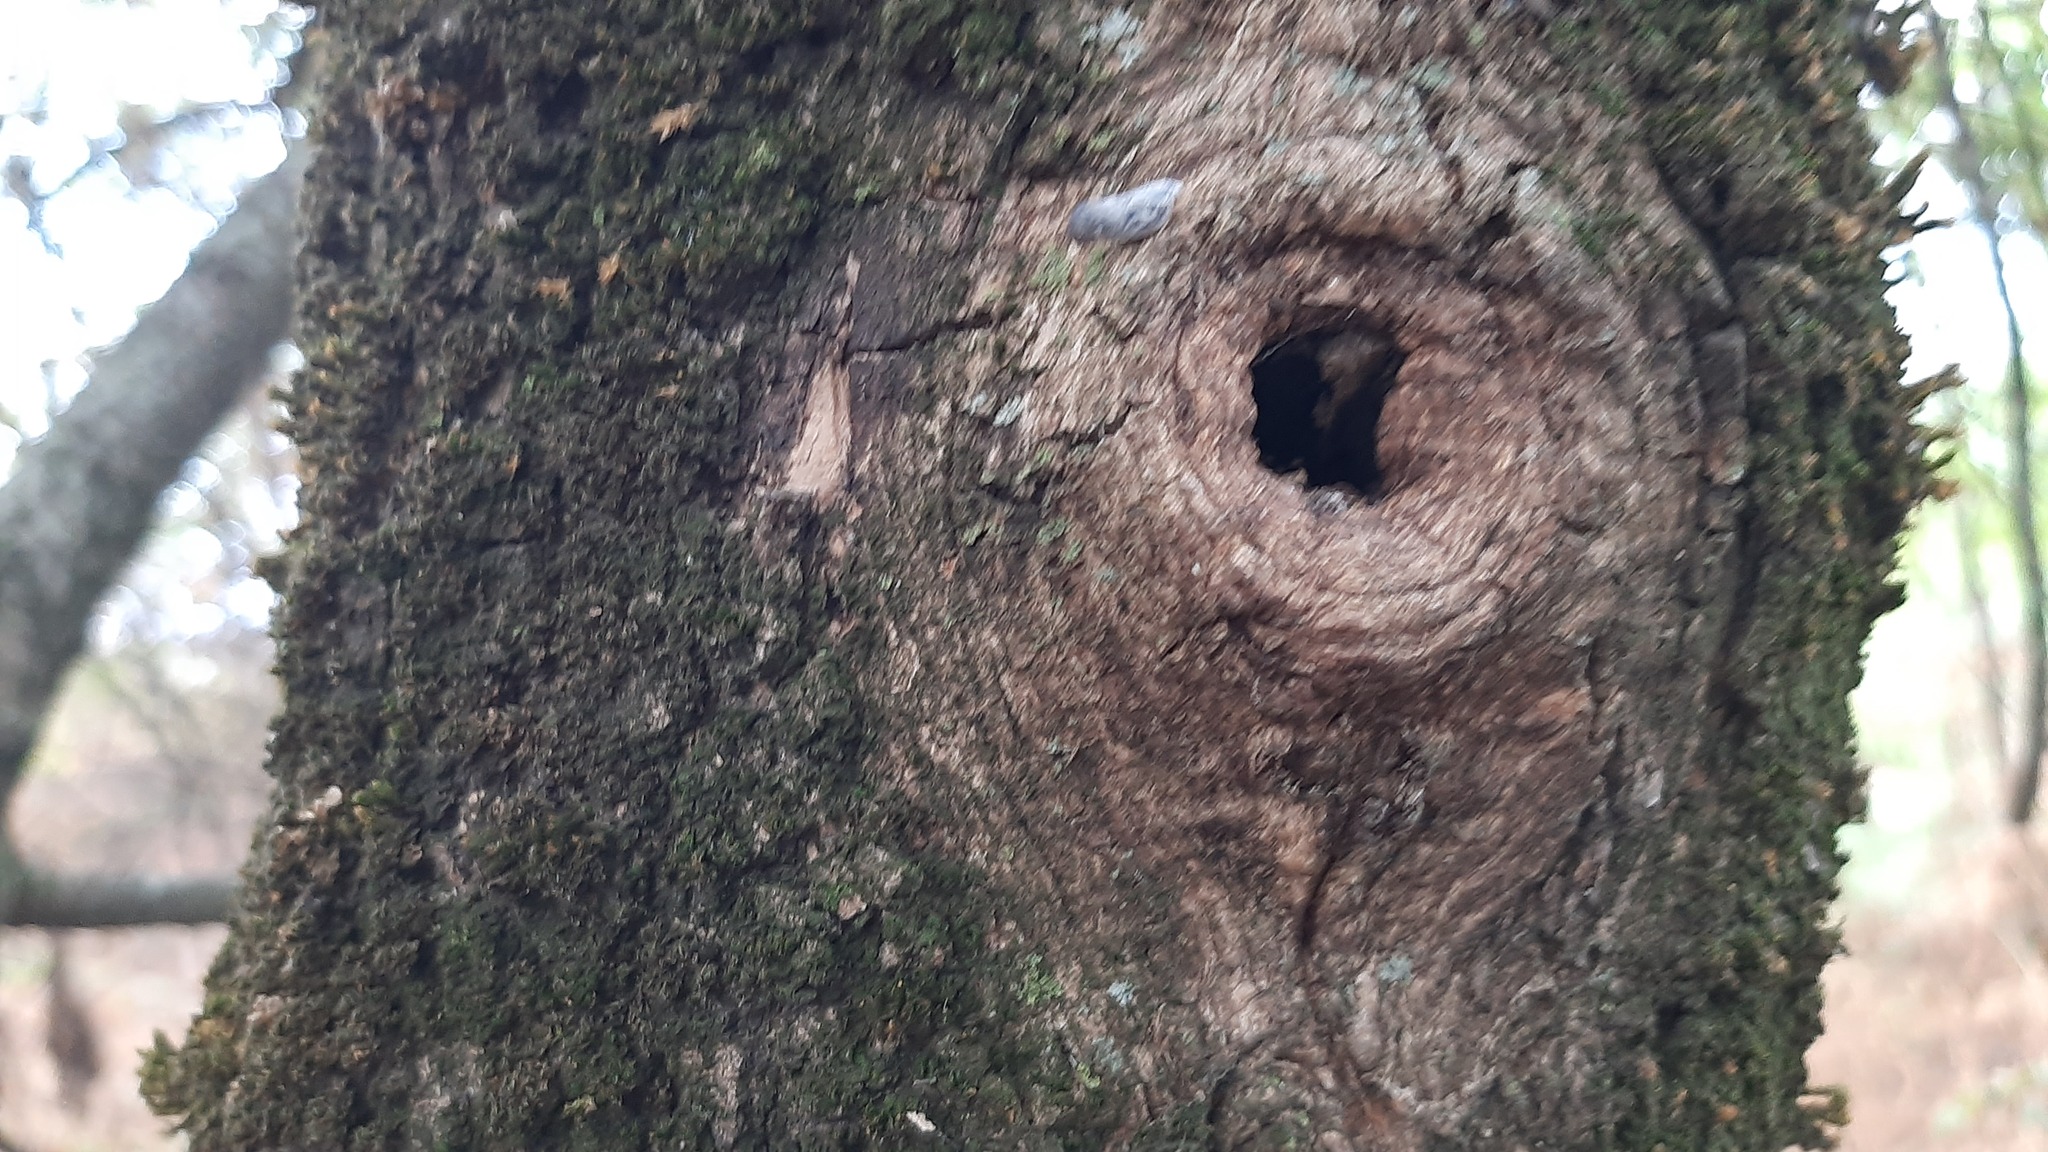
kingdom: Animalia
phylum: Arthropoda
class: Insecta
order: Hemiptera
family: Flatidae
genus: Metcalfa
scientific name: Metcalfa pruinosa
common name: Citrus flatid planthopper
